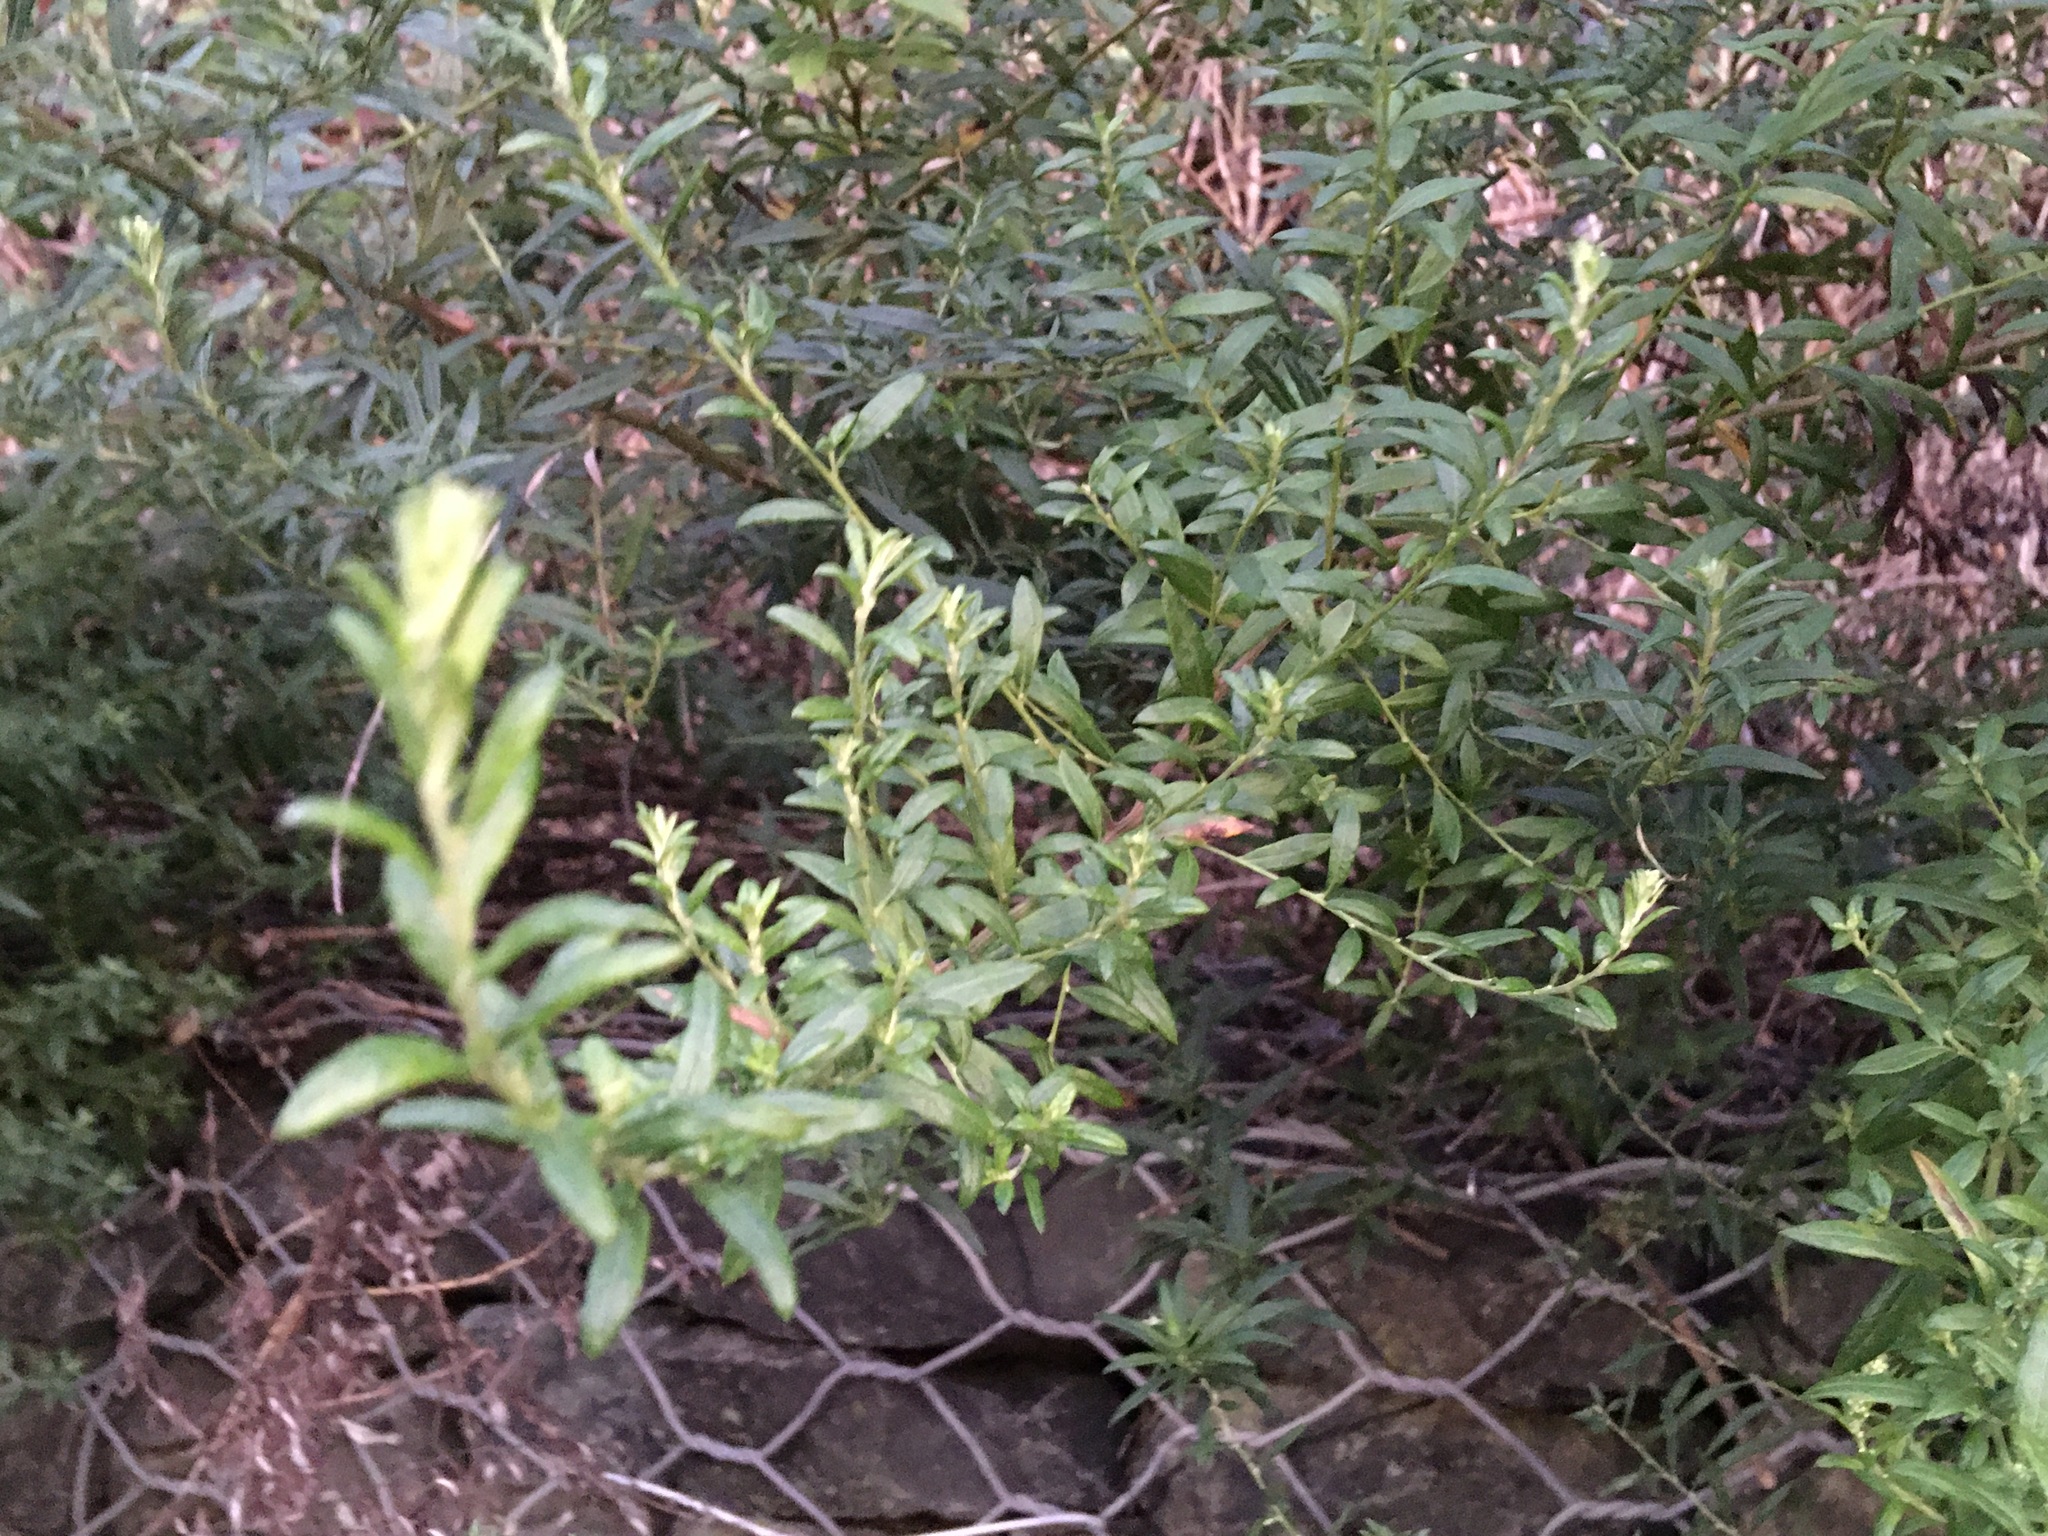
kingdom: Plantae
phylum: Tracheophyta
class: Magnoliopsida
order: Asterales
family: Asteraceae
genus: Artemisia
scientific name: Artemisia vulgaris
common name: Mugwort
